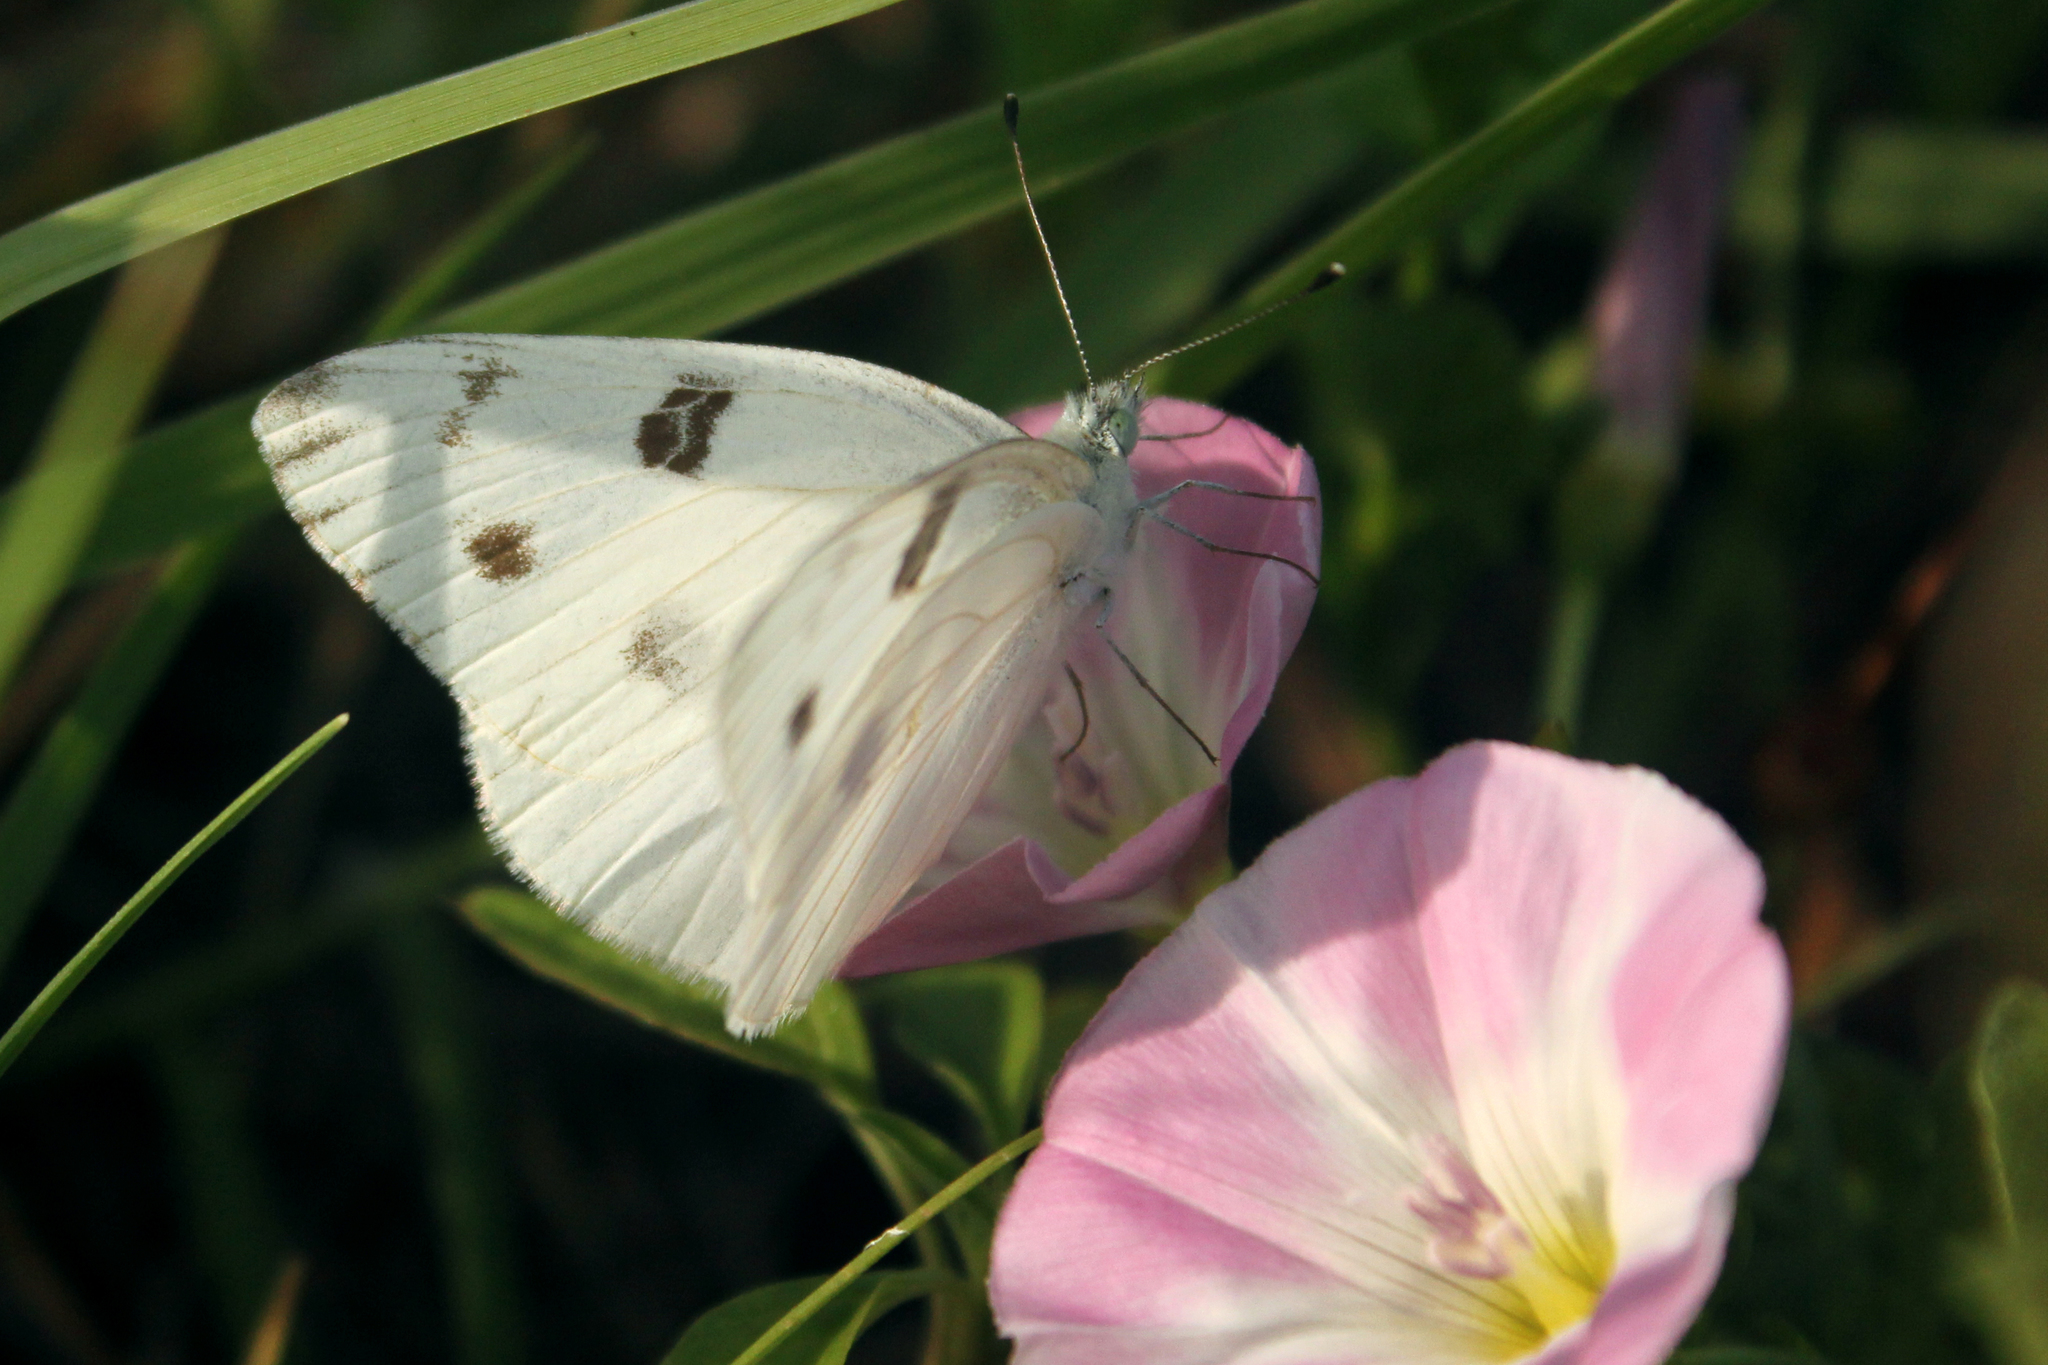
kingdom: Animalia
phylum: Arthropoda
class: Insecta
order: Lepidoptera
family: Pieridae
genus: Pontia
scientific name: Pontia protodice
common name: Checkered white
